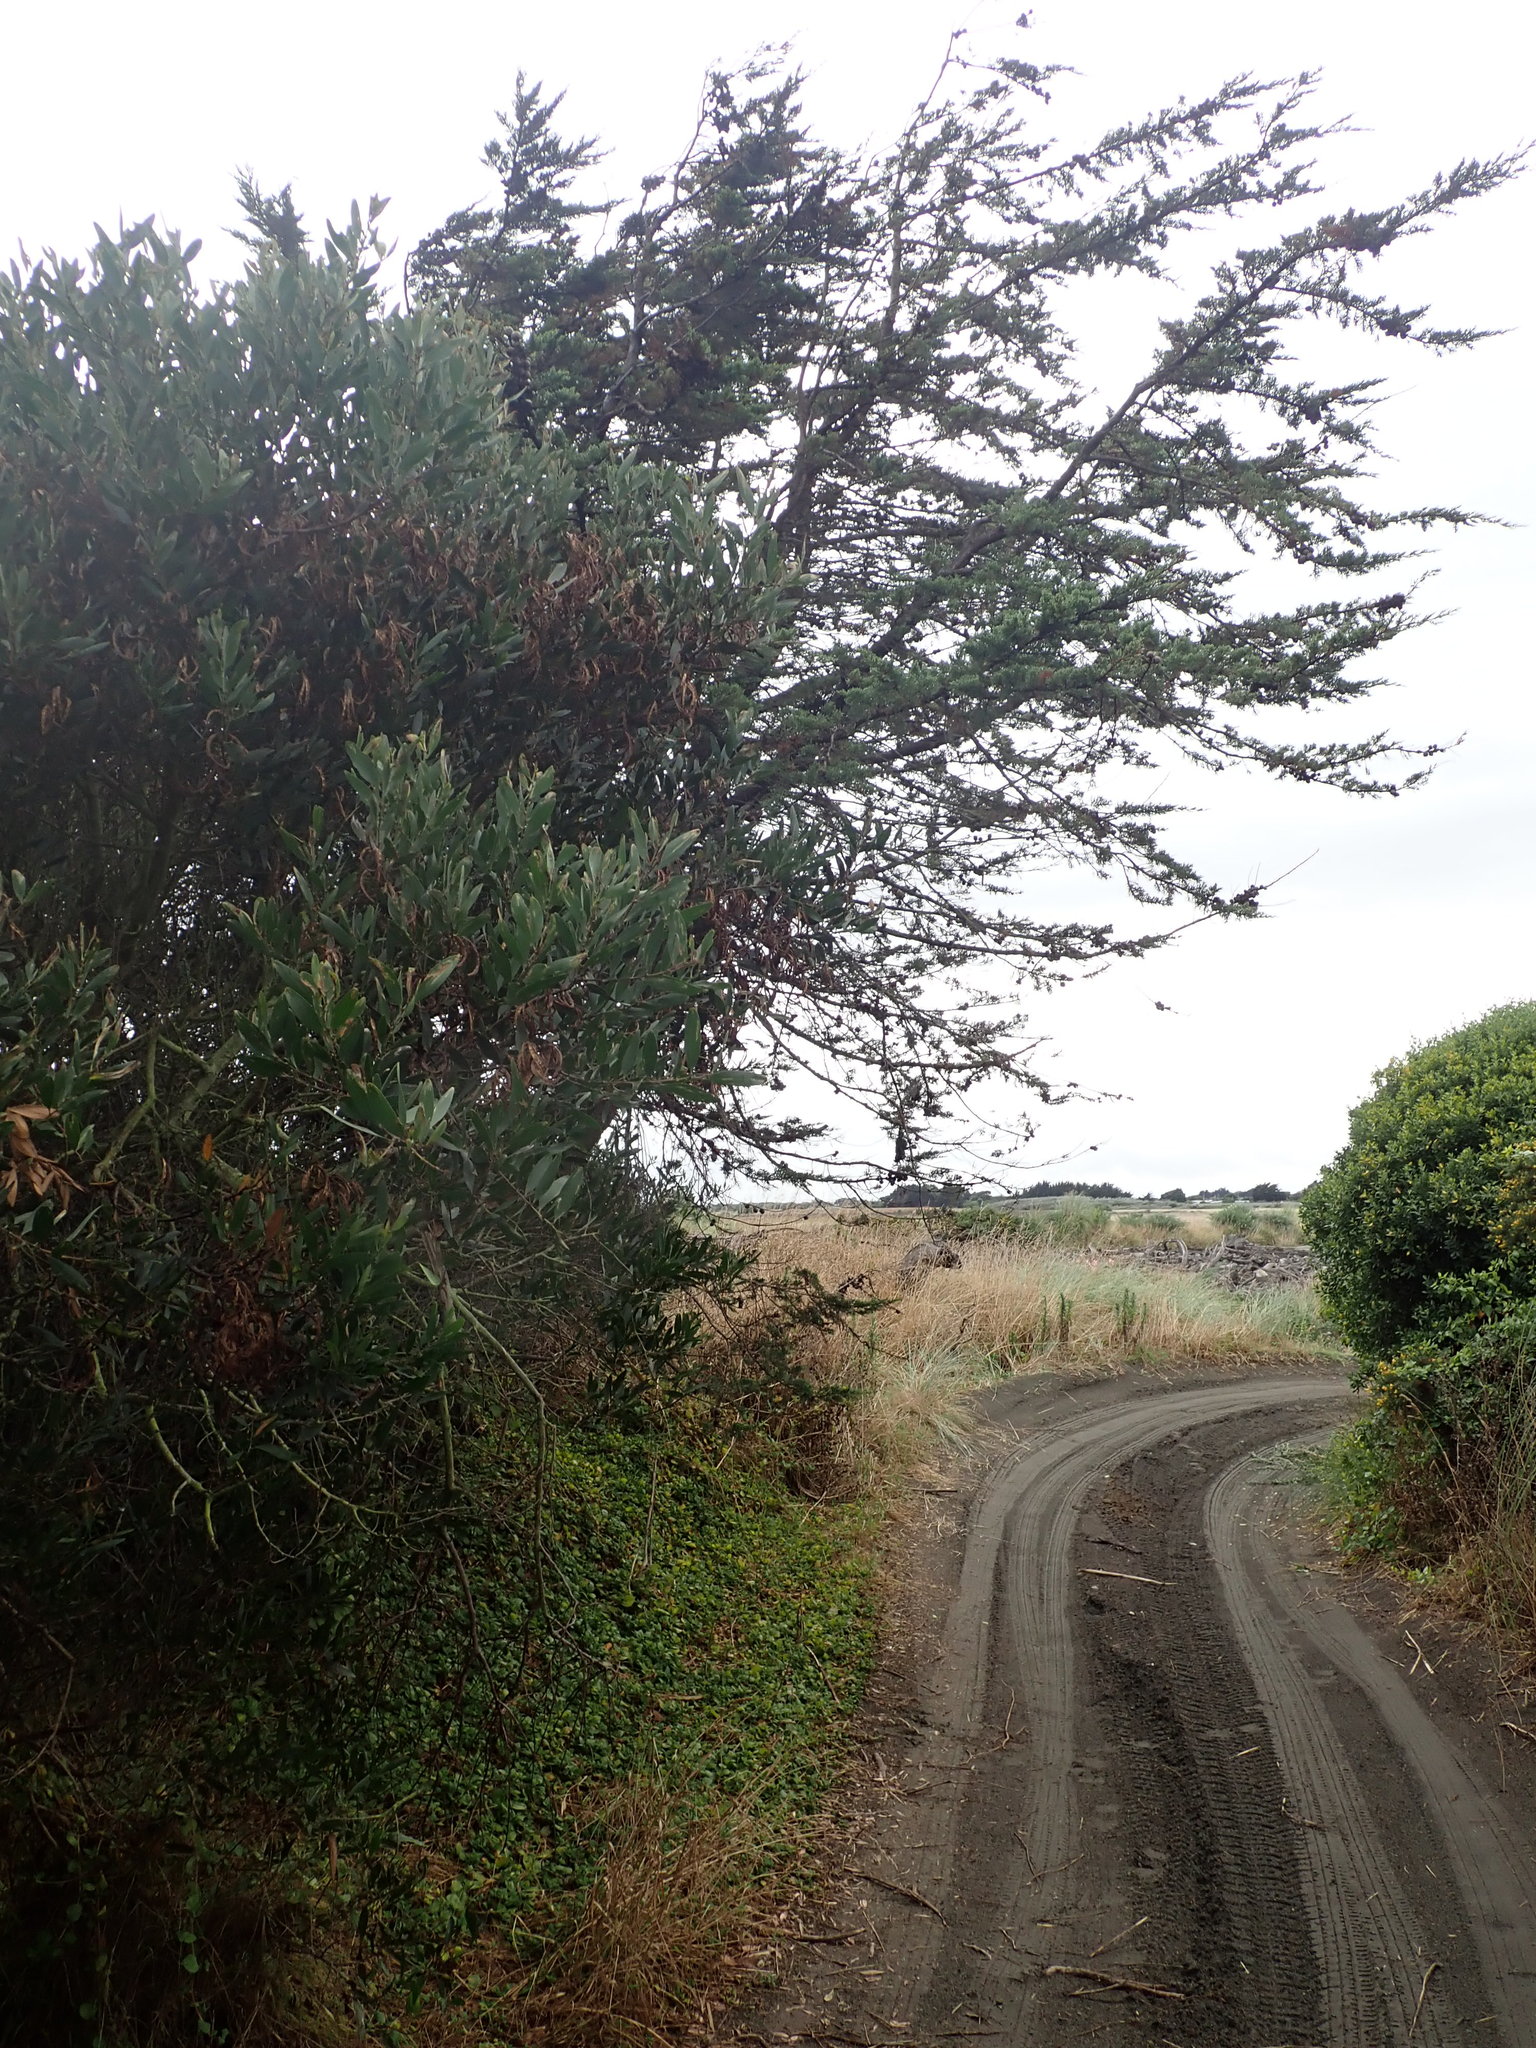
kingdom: Plantae
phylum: Tracheophyta
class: Pinopsida
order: Pinales
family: Cupressaceae
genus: Cupressus
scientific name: Cupressus macrocarpa
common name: Monterey cypress
